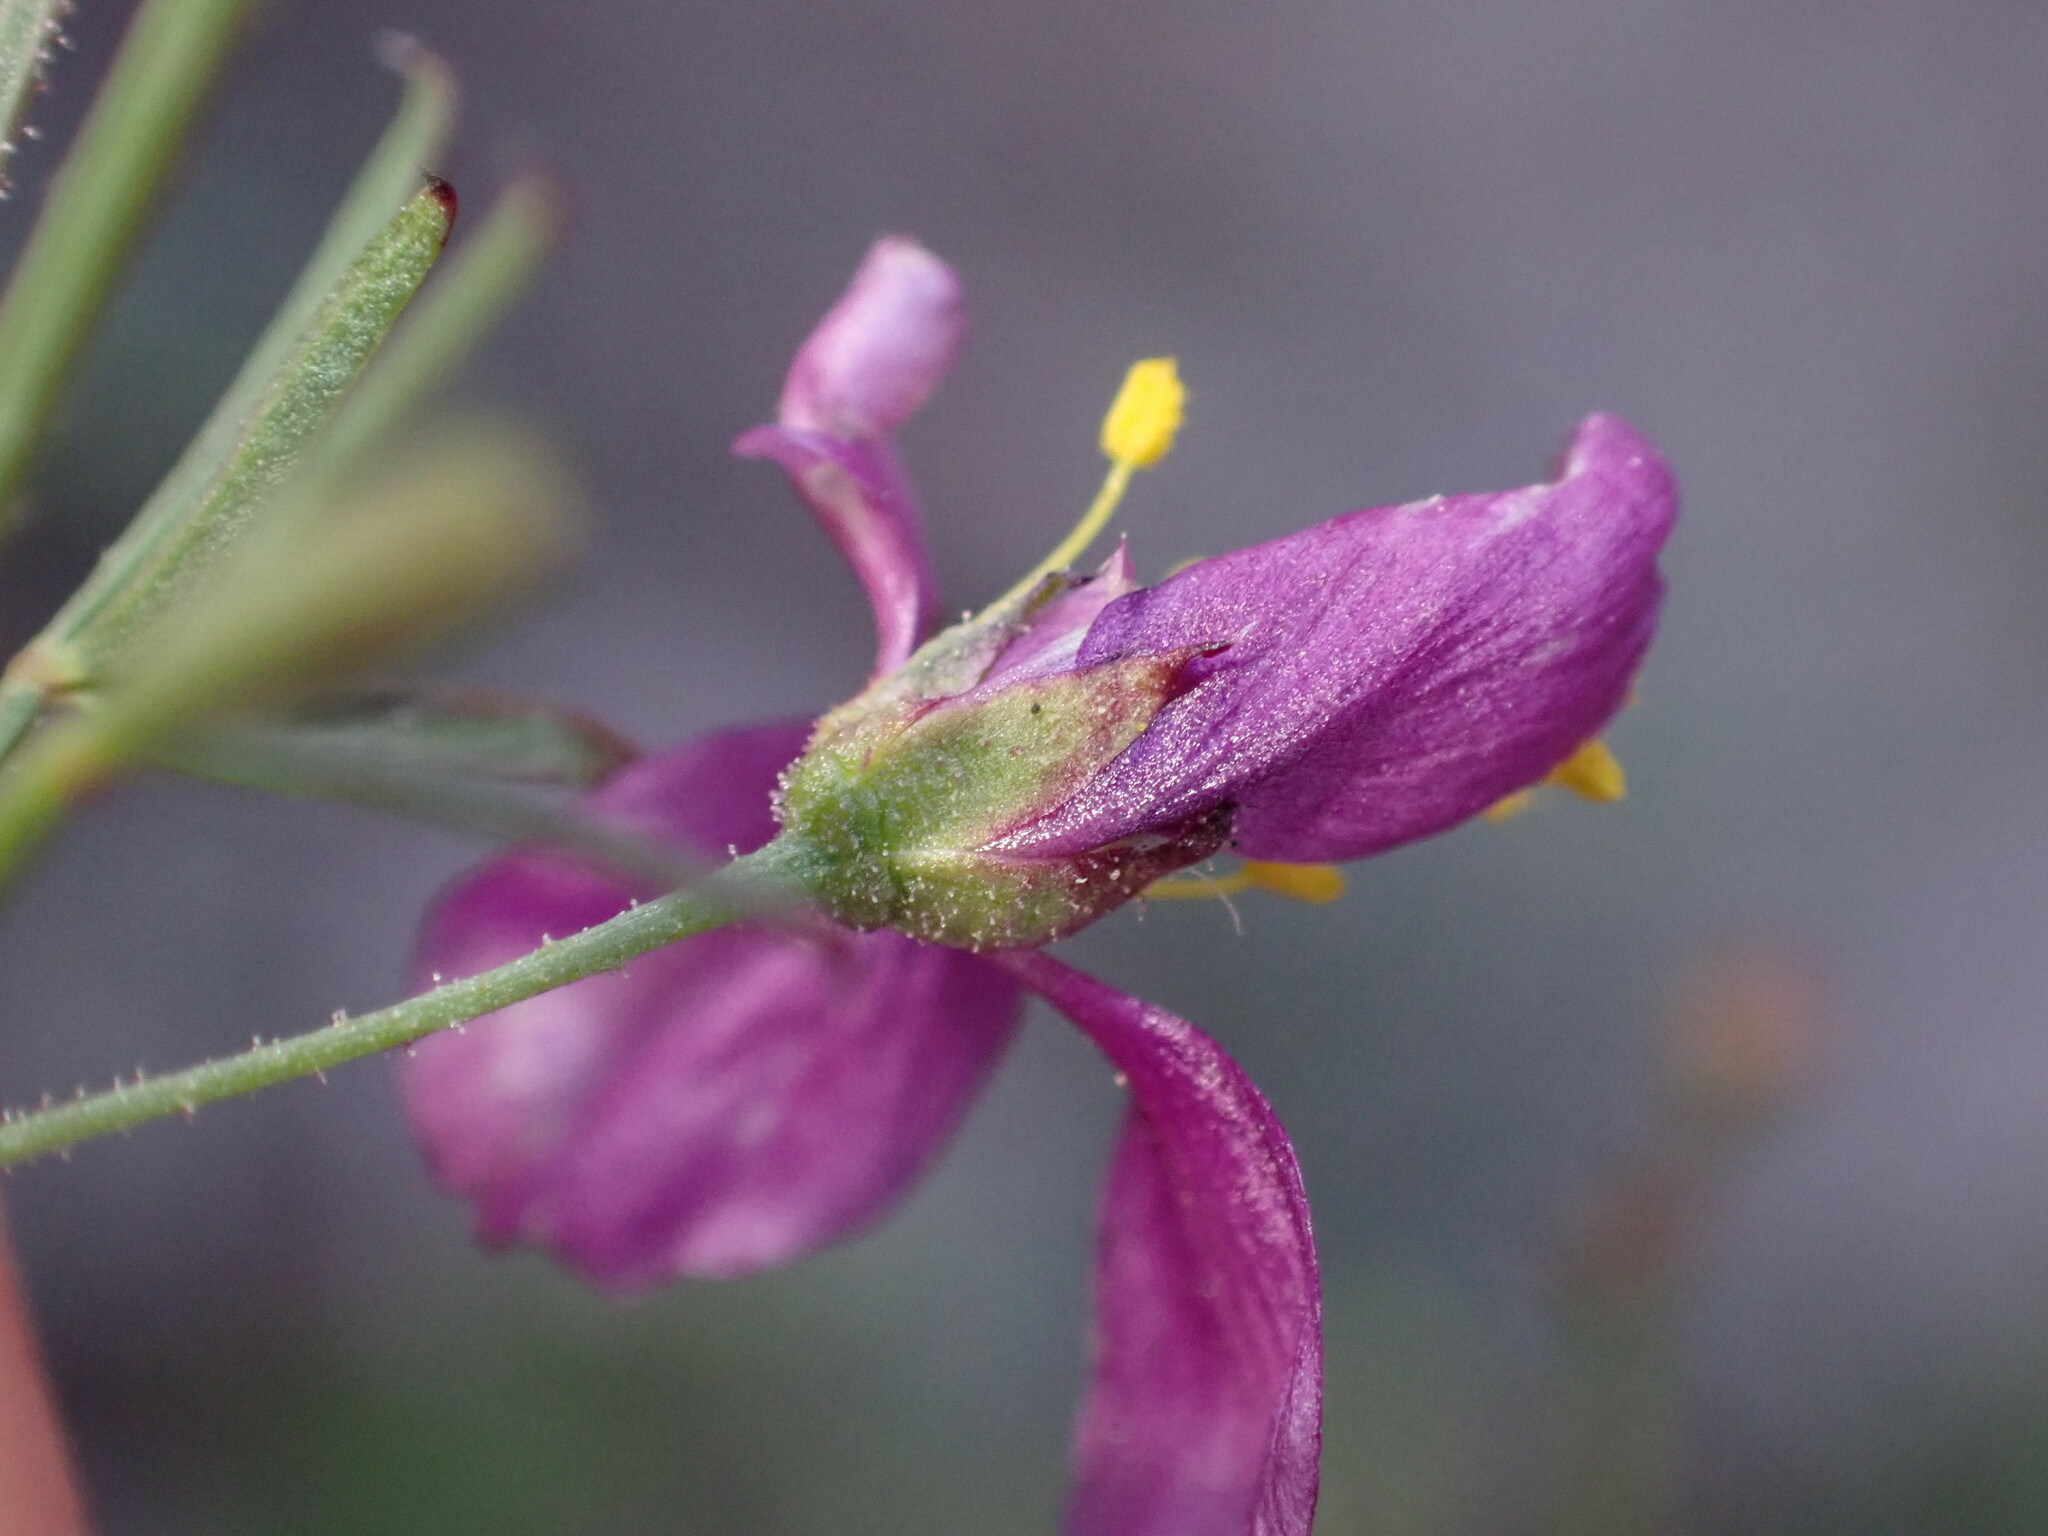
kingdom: Plantae
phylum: Tracheophyta
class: Magnoliopsida
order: Zygophyllales
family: Zygophyllaceae
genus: Fagonia
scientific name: Fagonia laevis
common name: California fagonbush
